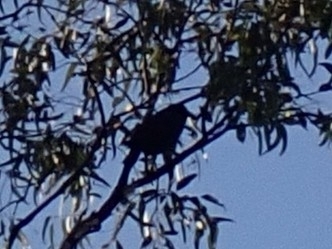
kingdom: Animalia
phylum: Chordata
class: Aves
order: Passeriformes
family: Corvidae
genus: Corvus
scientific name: Corvus orru
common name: Torresian crow
